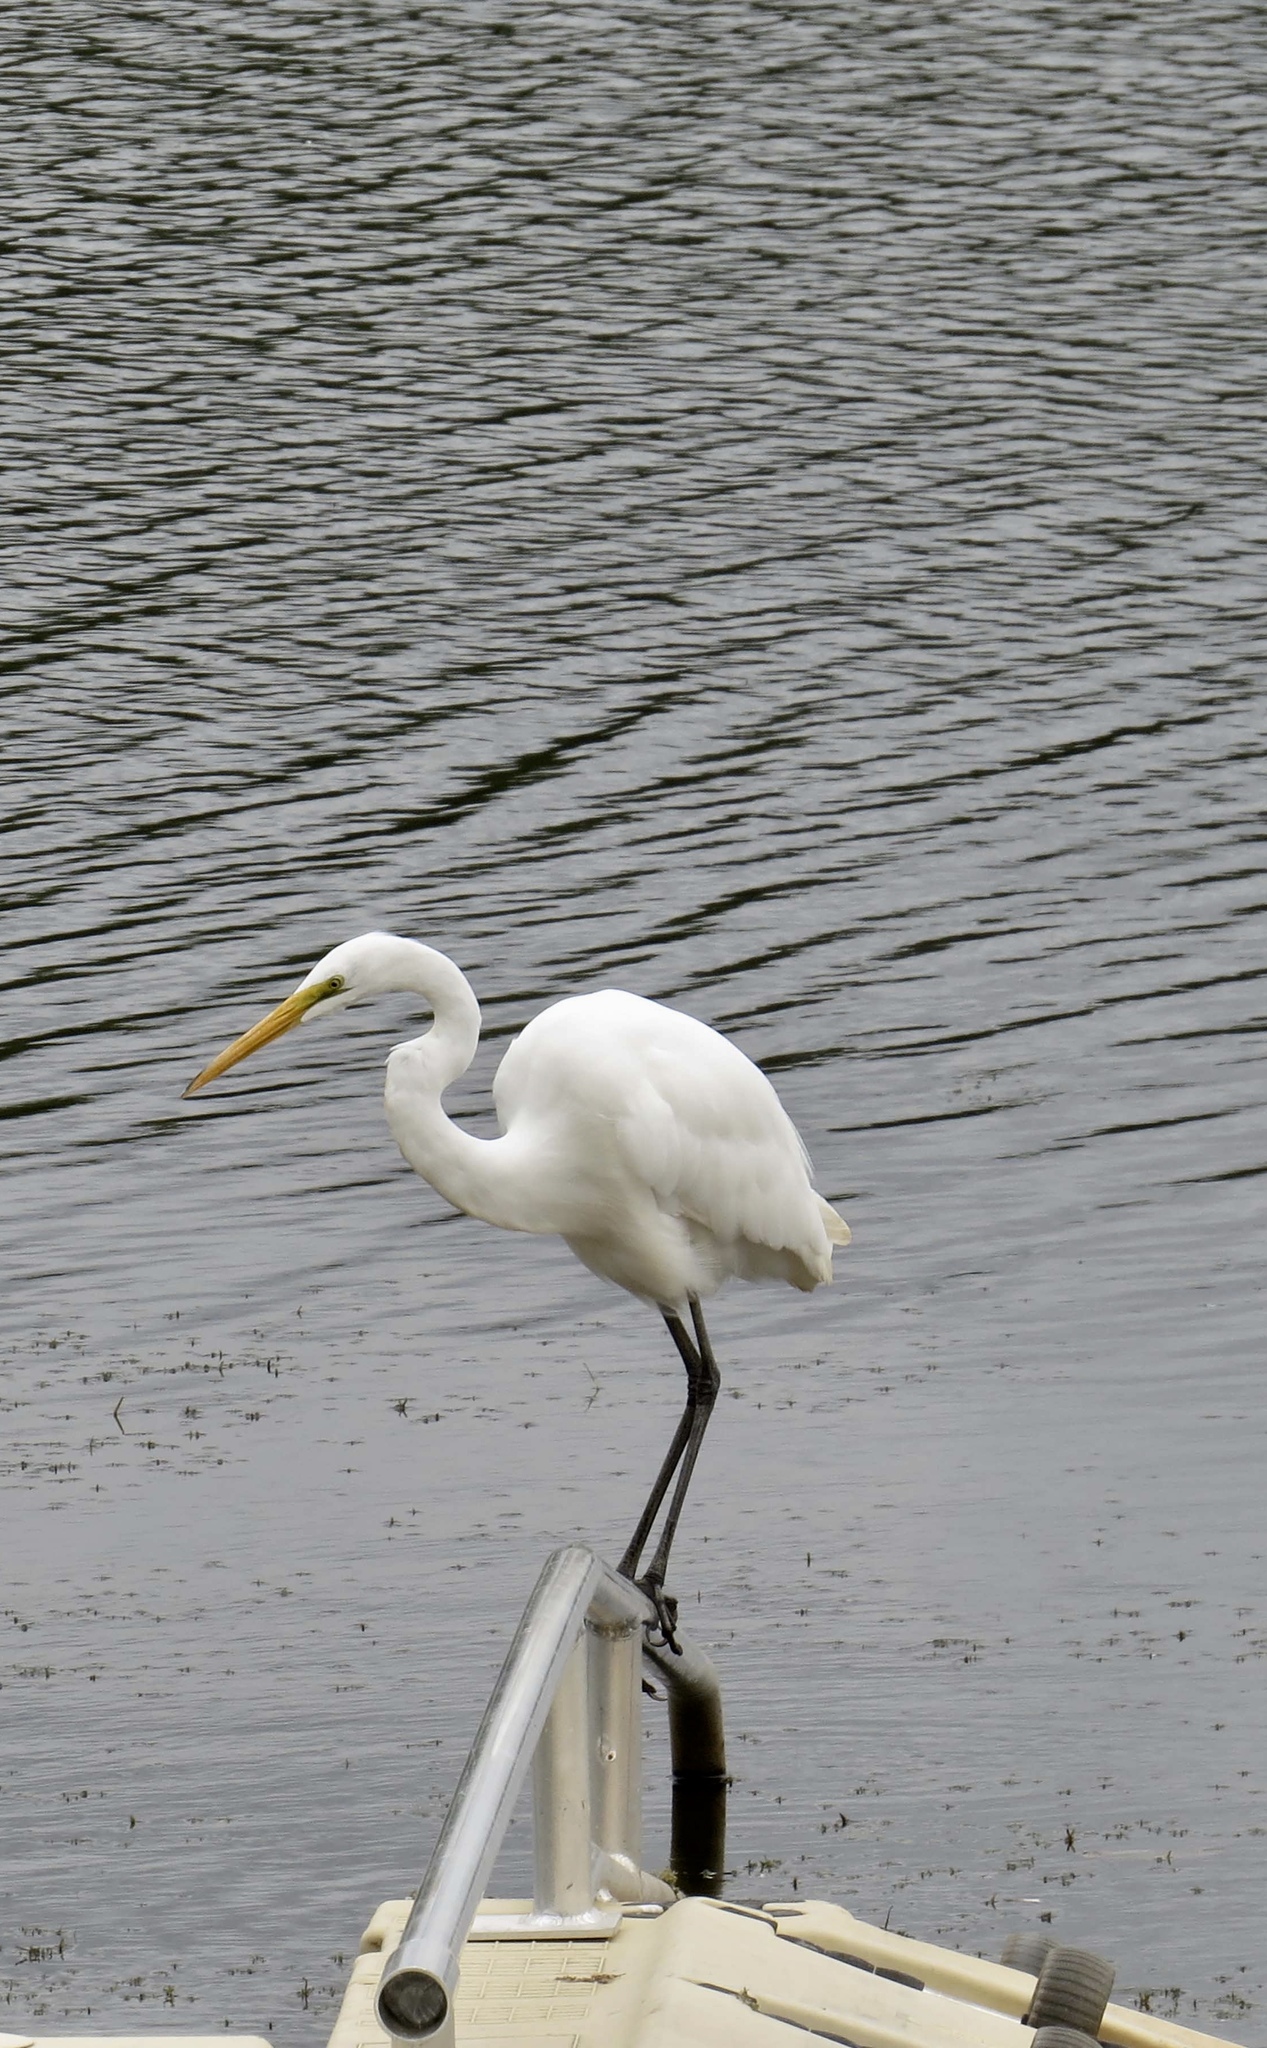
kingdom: Animalia
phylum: Chordata
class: Aves
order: Pelecaniformes
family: Ardeidae
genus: Ardea
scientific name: Ardea alba
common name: Great egret
